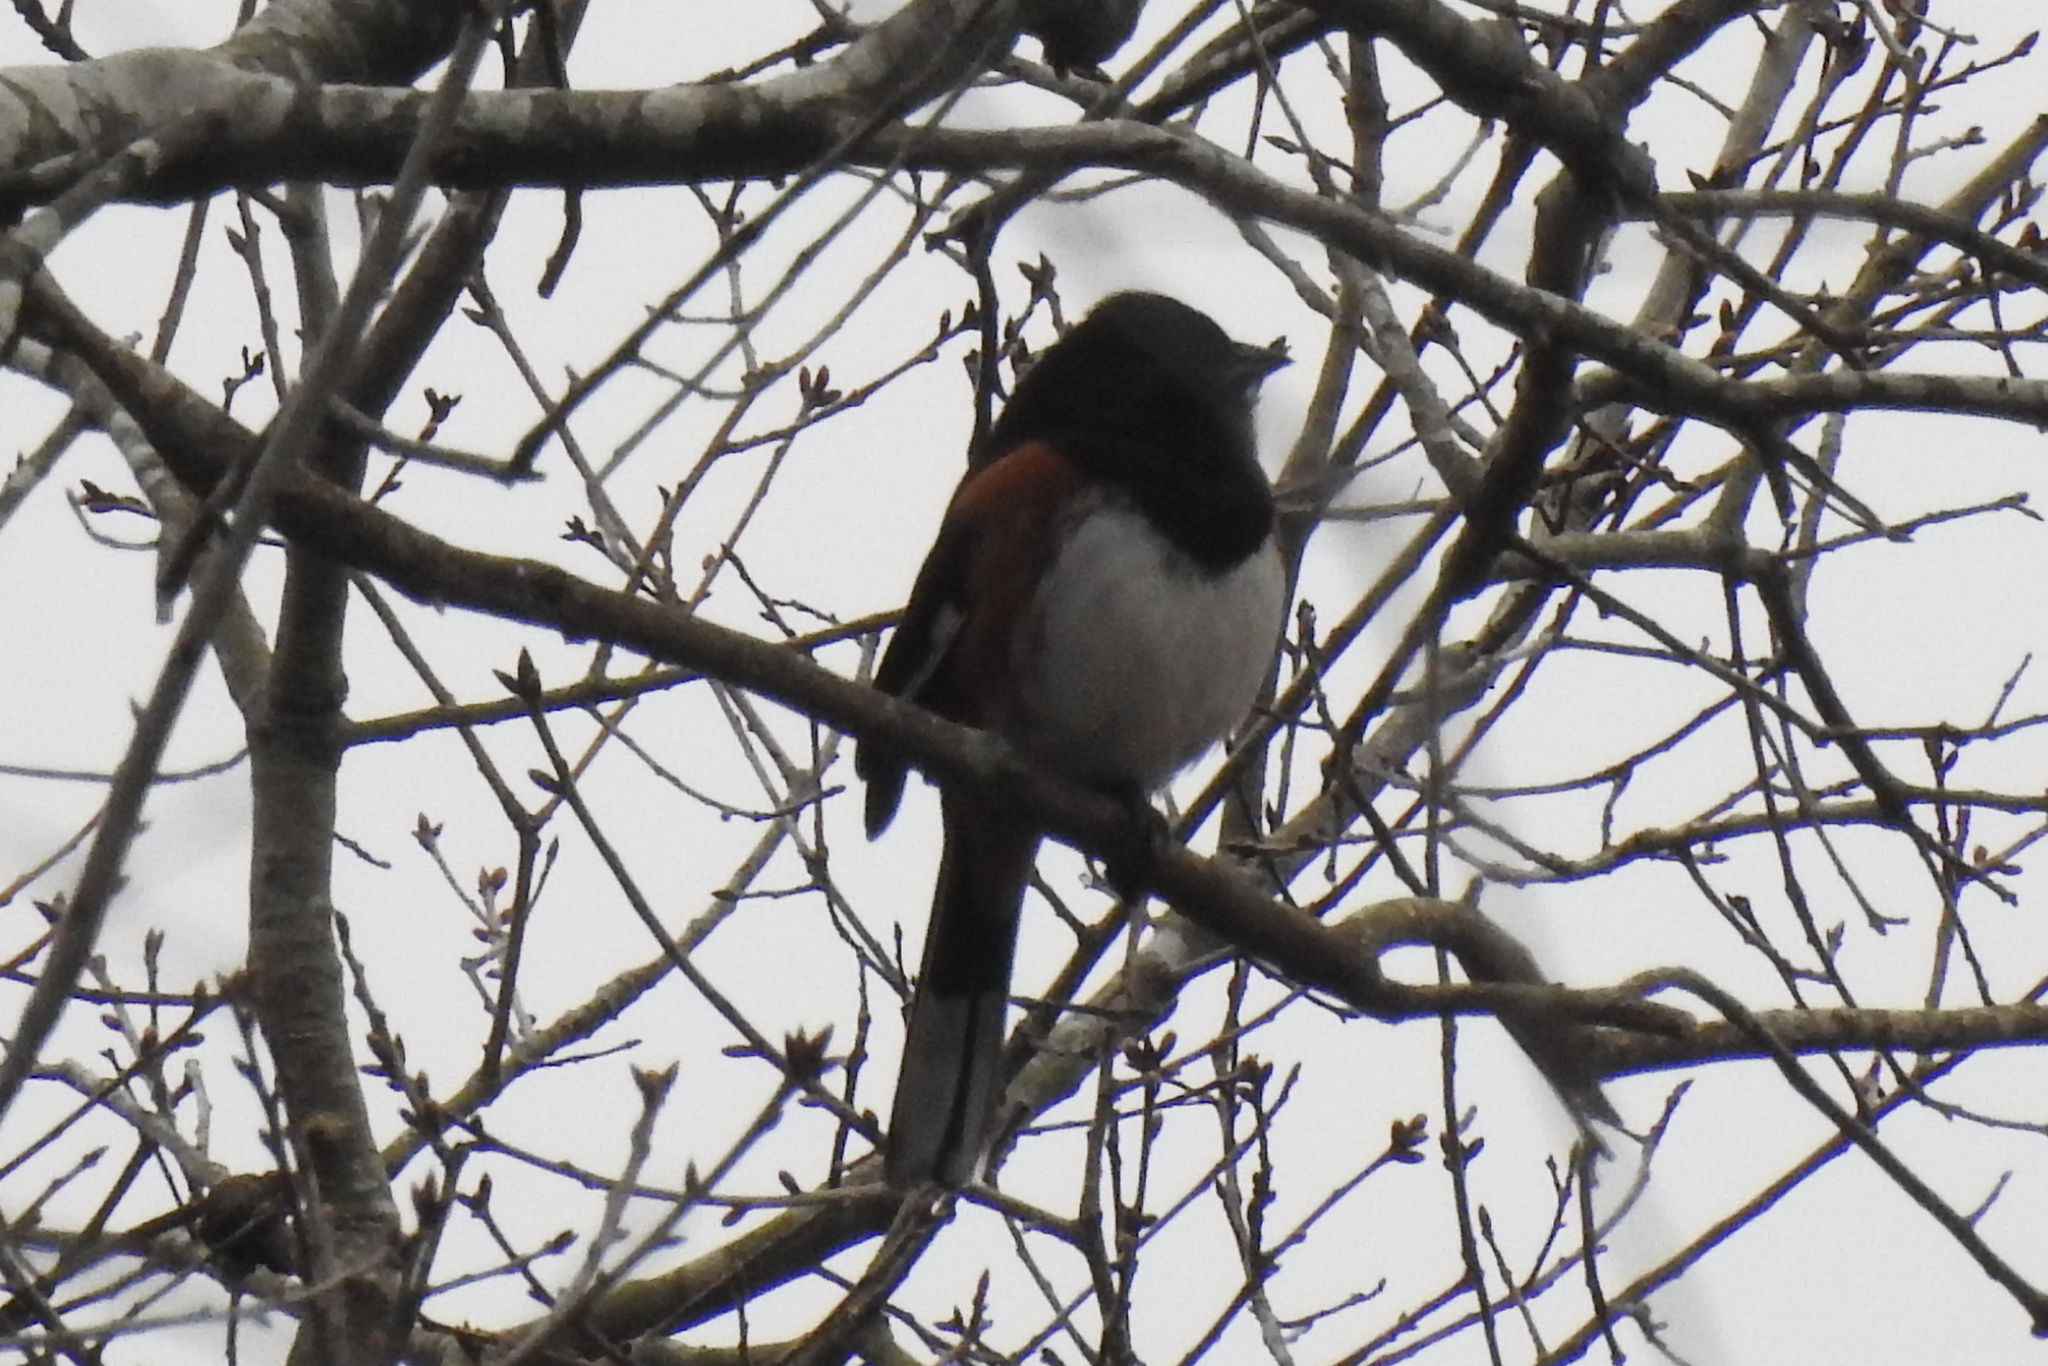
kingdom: Animalia
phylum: Chordata
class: Aves
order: Passeriformes
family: Passerellidae
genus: Pipilo
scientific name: Pipilo erythrophthalmus
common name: Eastern towhee
